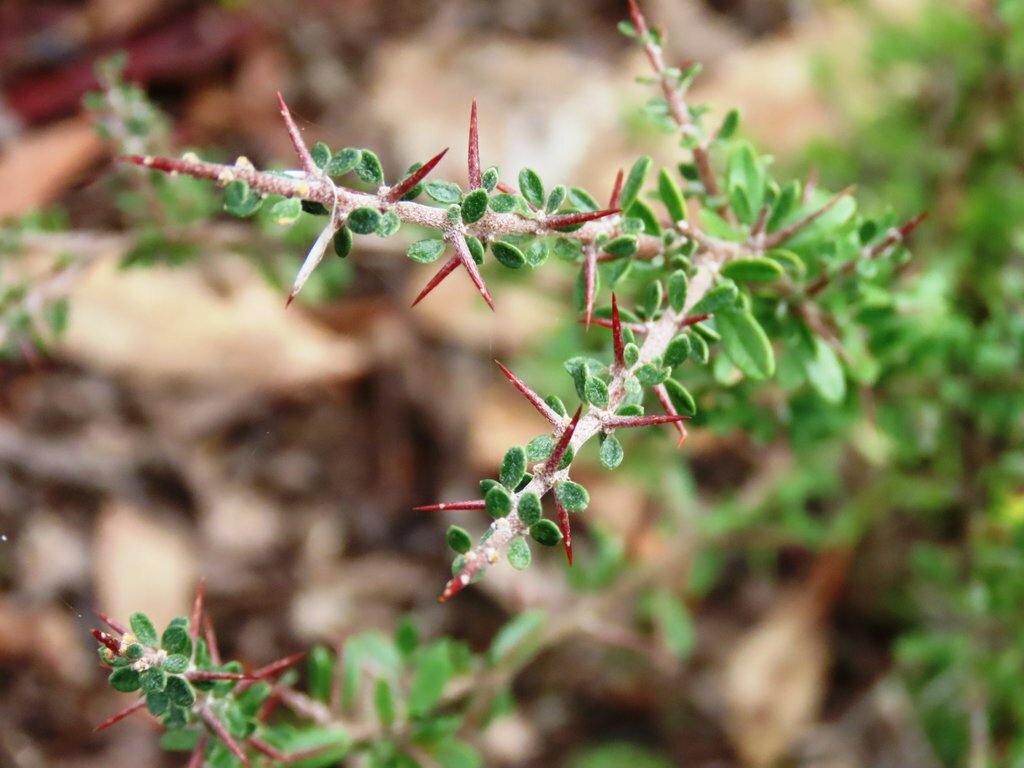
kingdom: Plantae
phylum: Tracheophyta
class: Magnoliopsida
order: Apiales
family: Pittosporaceae
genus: Bursaria
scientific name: Bursaria spinosa
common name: Australian blackthorn
